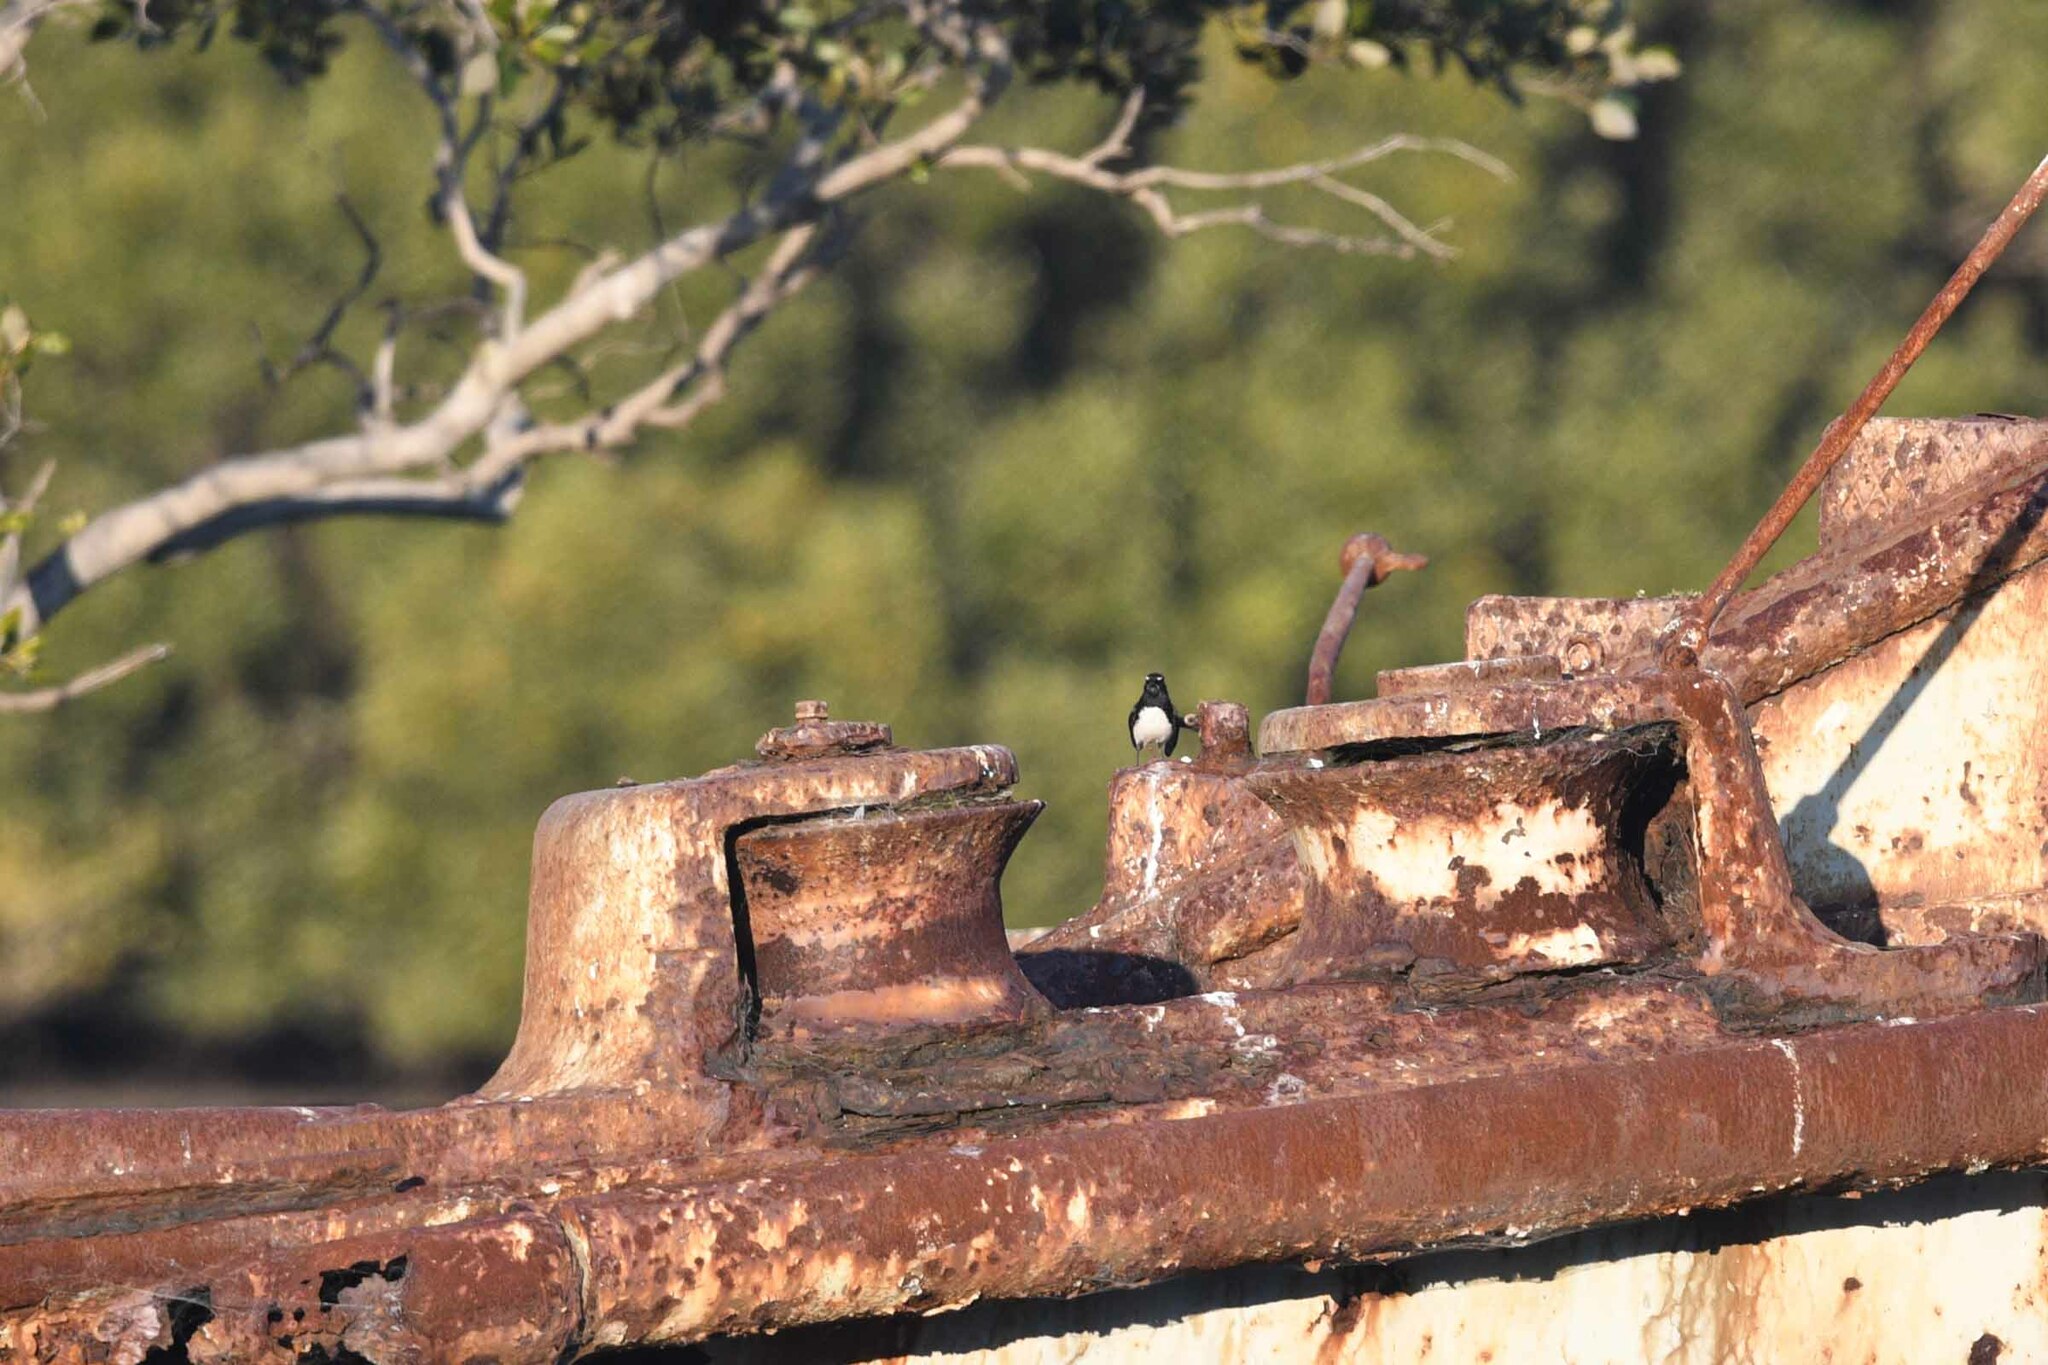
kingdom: Animalia
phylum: Chordata
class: Aves
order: Passeriformes
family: Rhipiduridae
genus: Rhipidura
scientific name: Rhipidura leucophrys
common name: Willie wagtail
